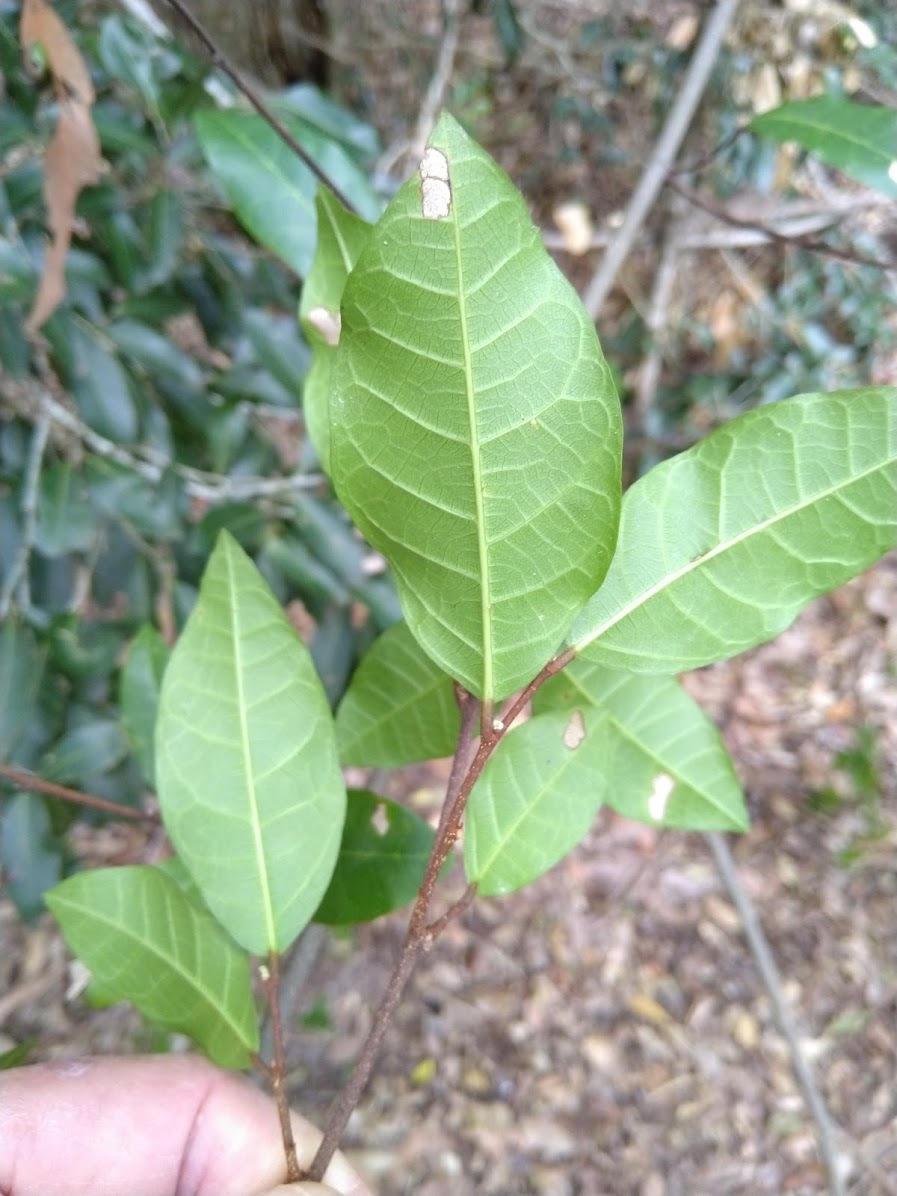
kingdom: Plantae
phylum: Tracheophyta
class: Magnoliopsida
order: Rosales
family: Moraceae
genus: Malaisia
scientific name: Malaisia scandens
